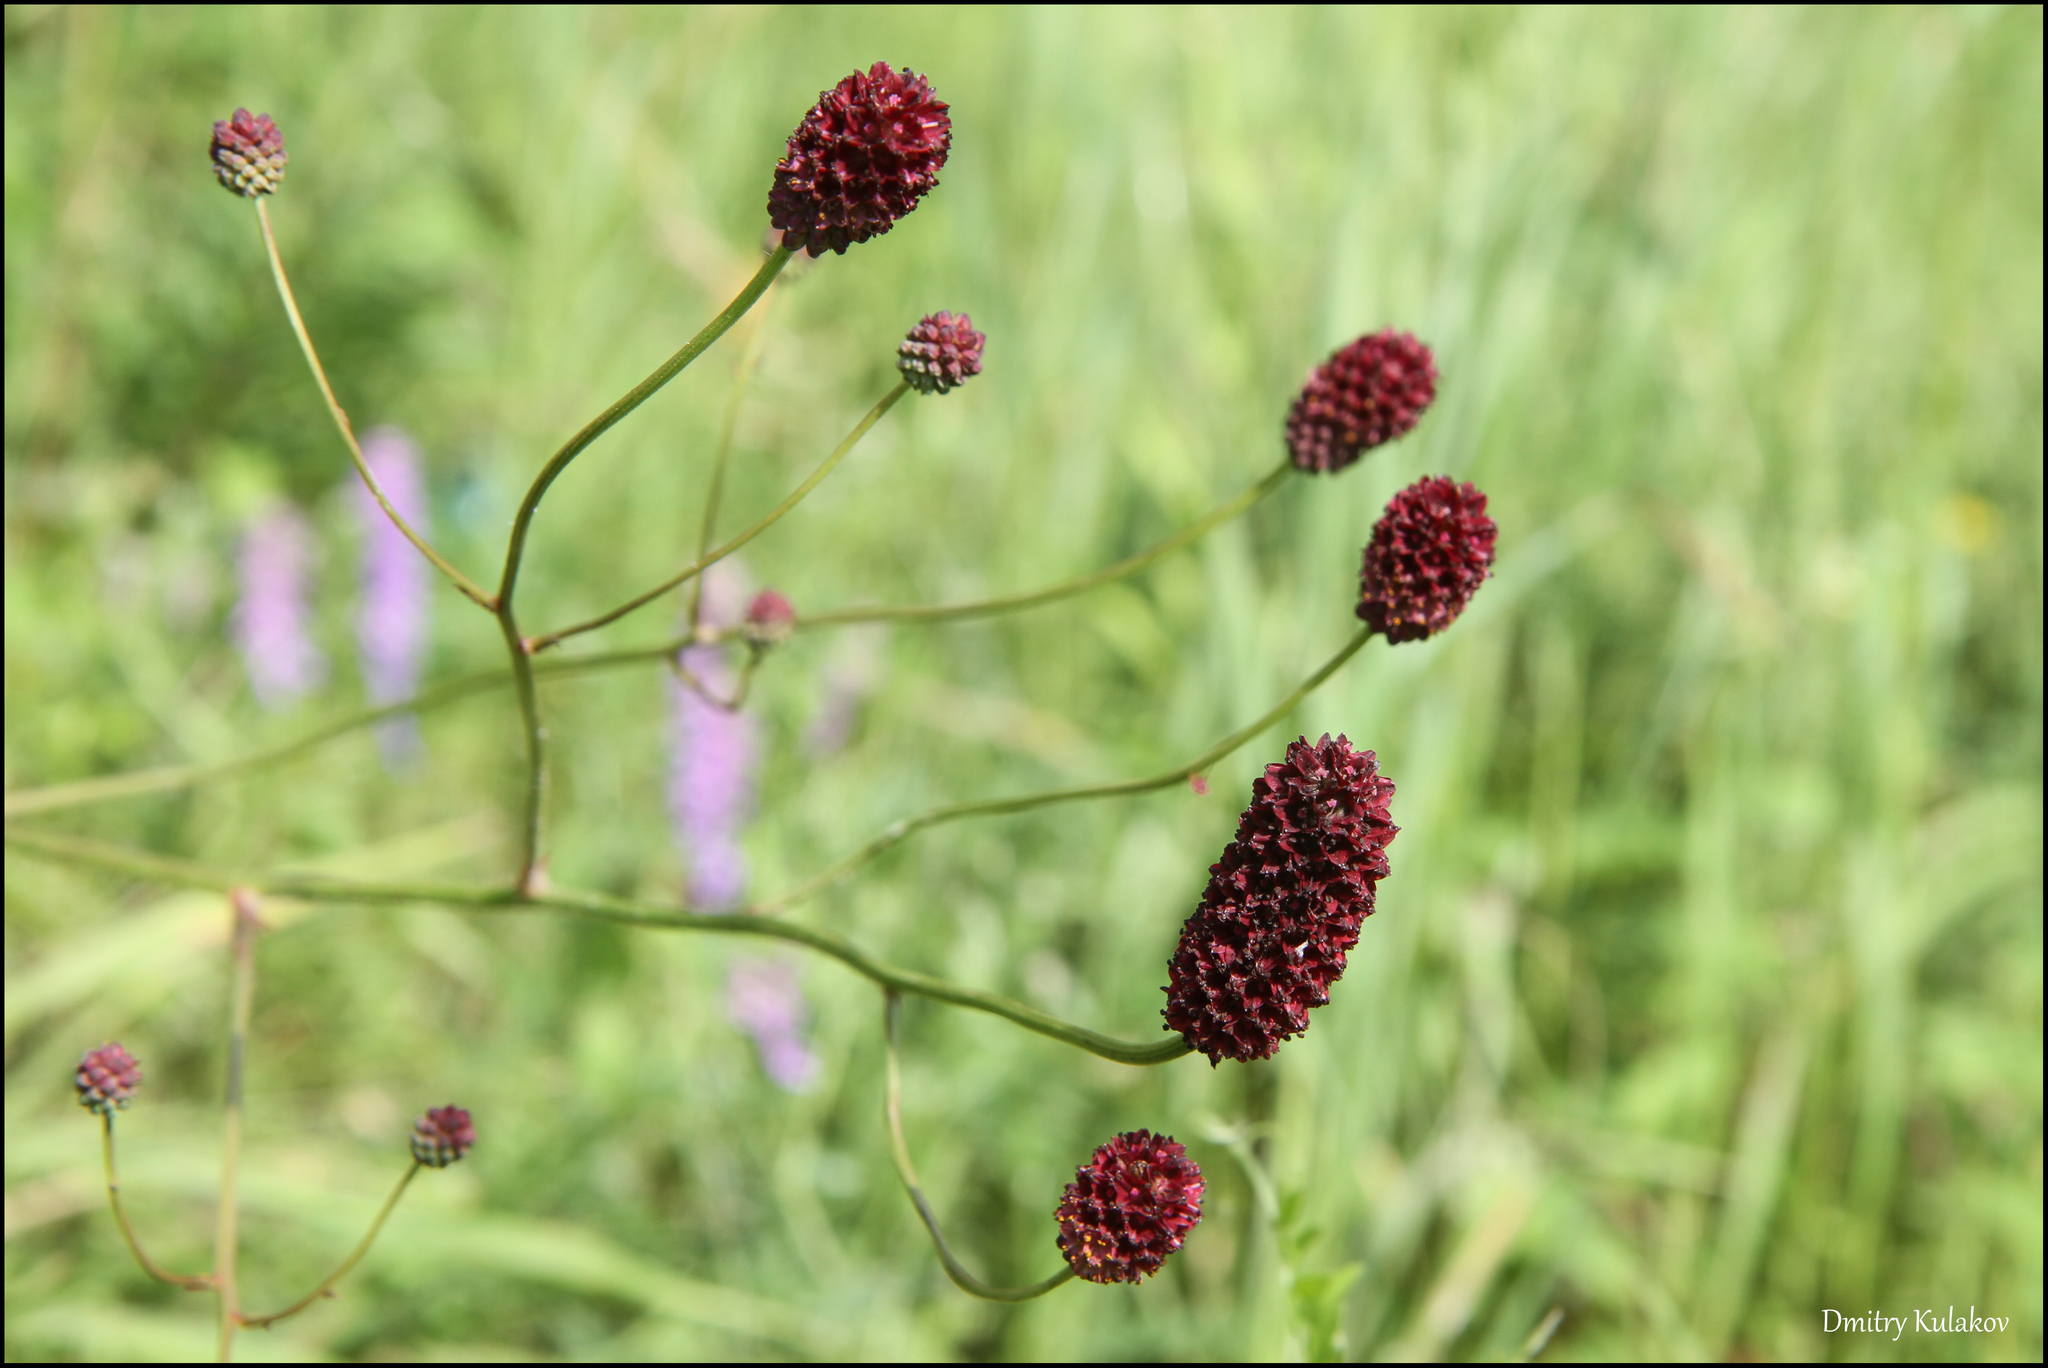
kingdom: Plantae
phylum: Tracheophyta
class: Magnoliopsida
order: Rosales
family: Rosaceae
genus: Sanguisorba
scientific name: Sanguisorba officinalis
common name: Great burnet
